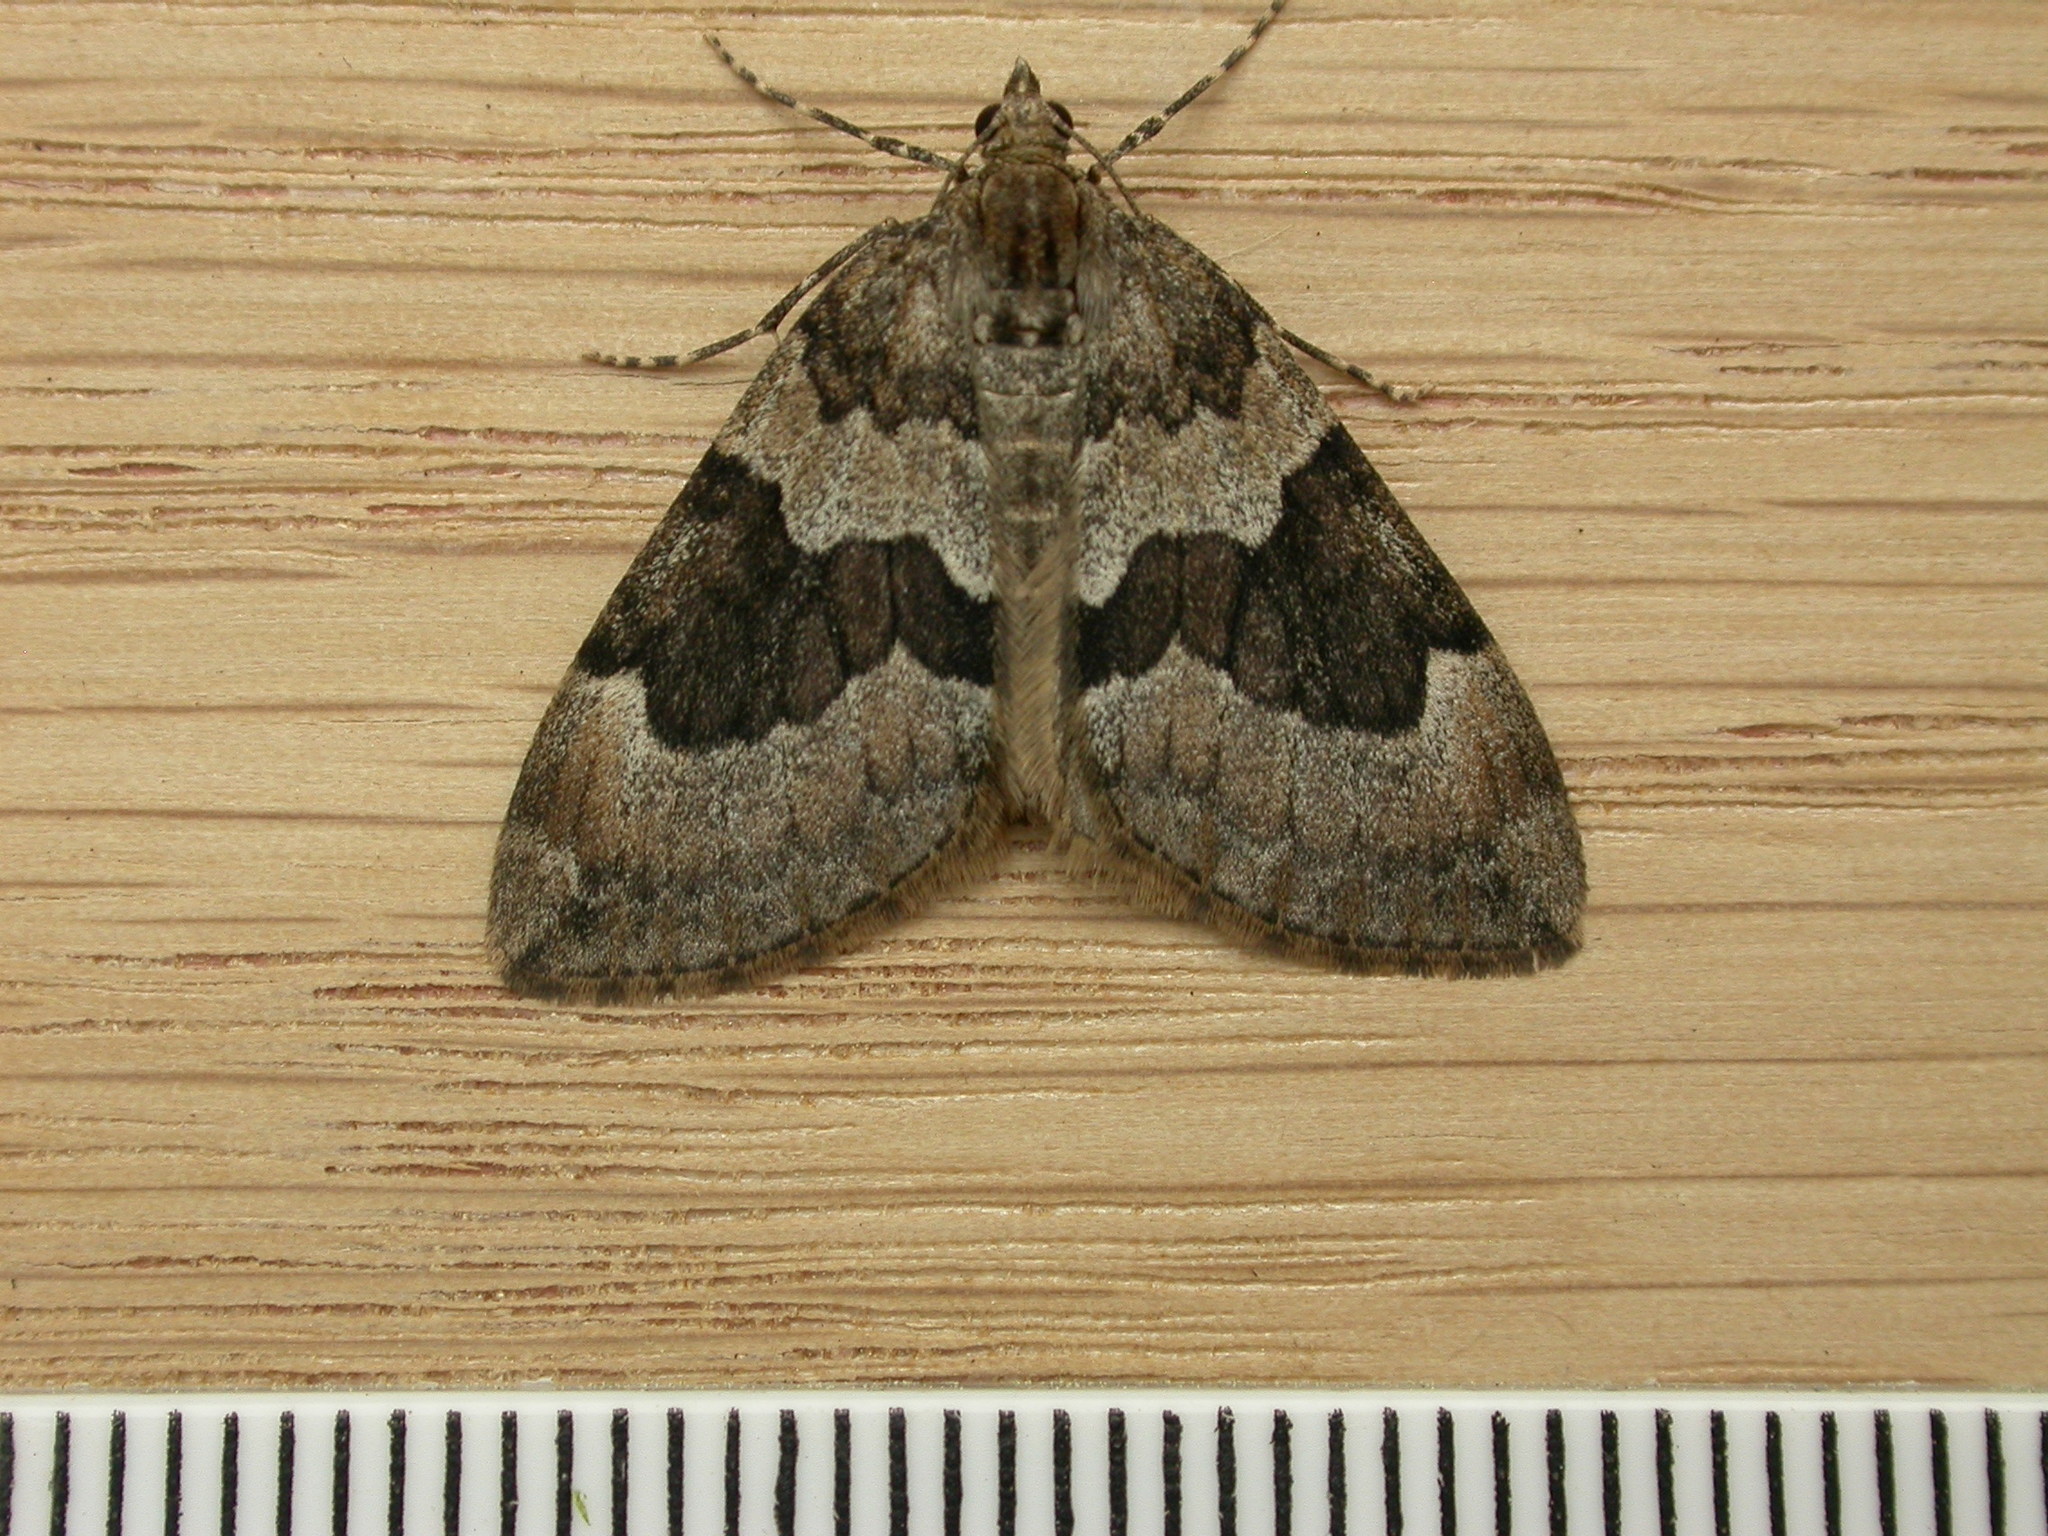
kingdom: Animalia
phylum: Arthropoda
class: Insecta
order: Lepidoptera
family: Geometridae
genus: Thera
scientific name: Thera obeliscata
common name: Grey pine carpet
